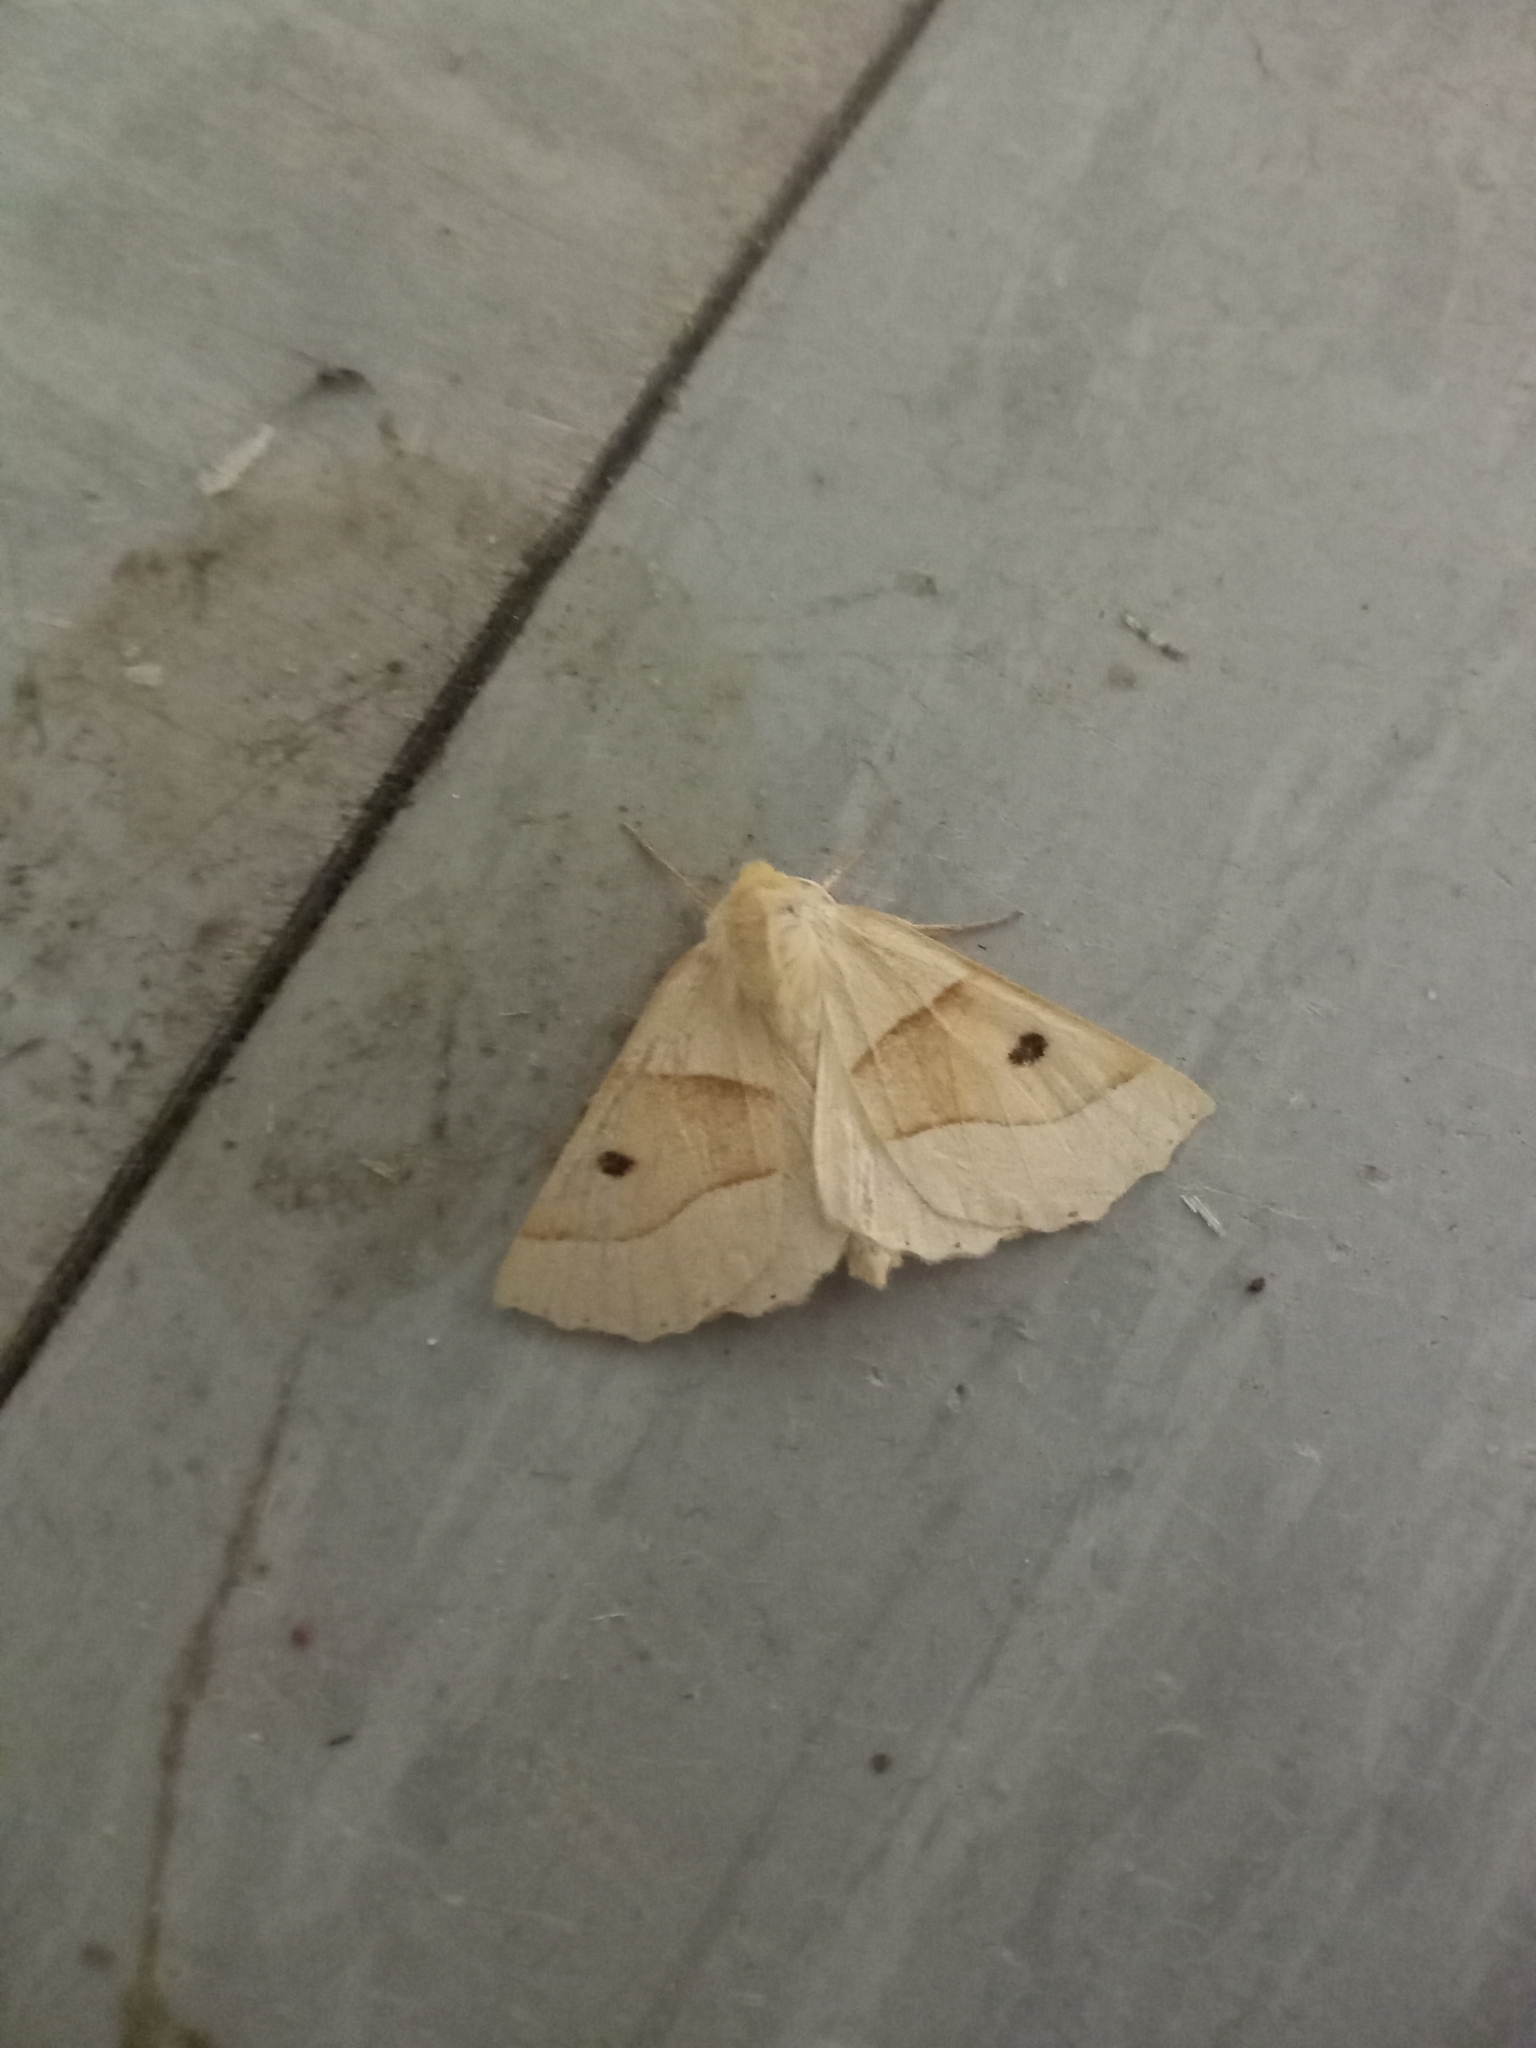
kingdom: Animalia
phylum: Arthropoda
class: Insecta
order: Lepidoptera
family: Geometridae
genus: Crocallis
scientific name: Crocallis elinguaria
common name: Scalloped oak
